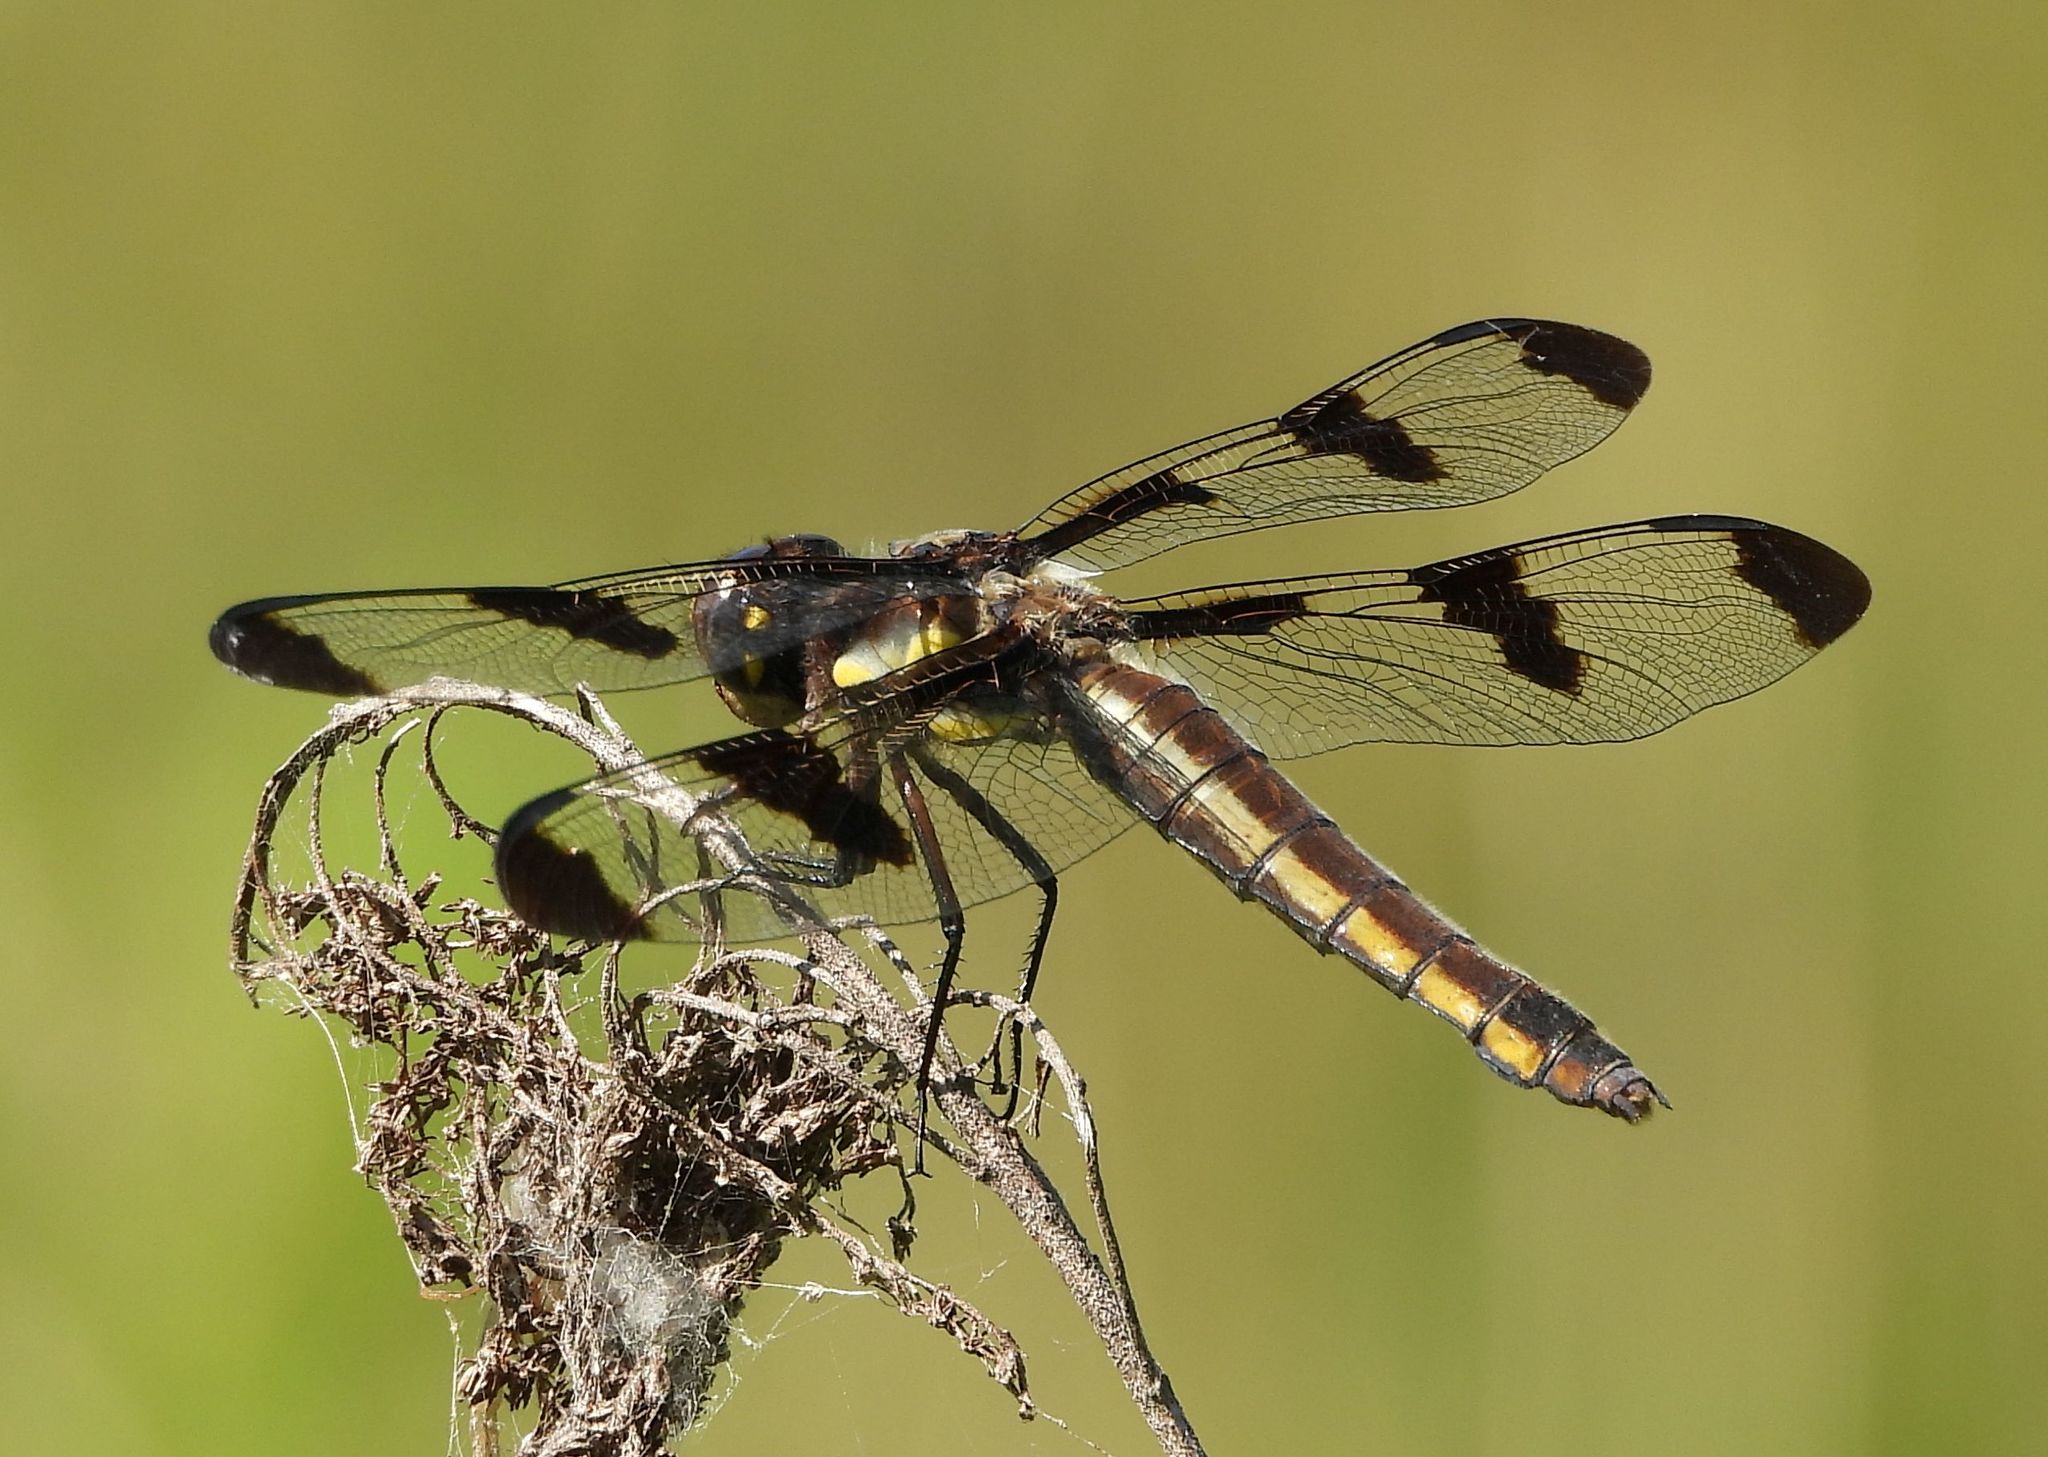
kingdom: Animalia
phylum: Arthropoda
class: Insecta
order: Odonata
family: Libellulidae
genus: Libellula
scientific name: Libellula pulchella
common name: Twelve-spotted skimmer
